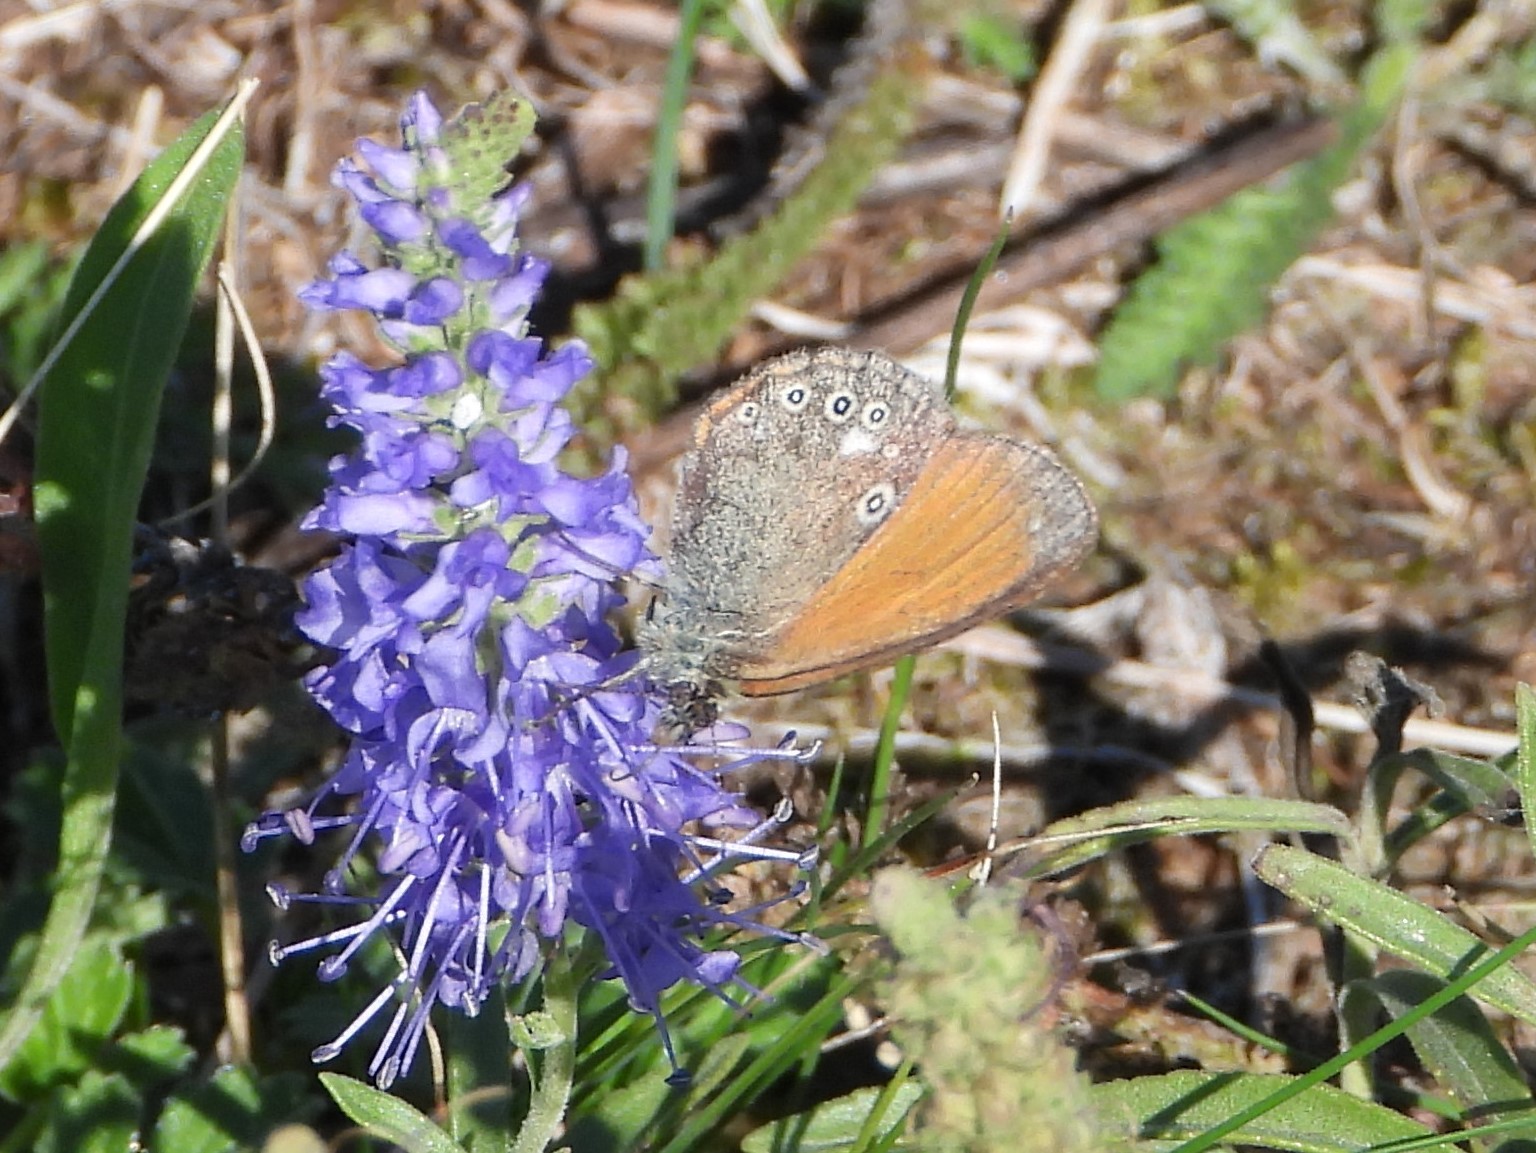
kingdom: Animalia
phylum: Arthropoda
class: Insecta
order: Lepidoptera
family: Nymphalidae
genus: Coenonympha
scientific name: Coenonympha iphis
